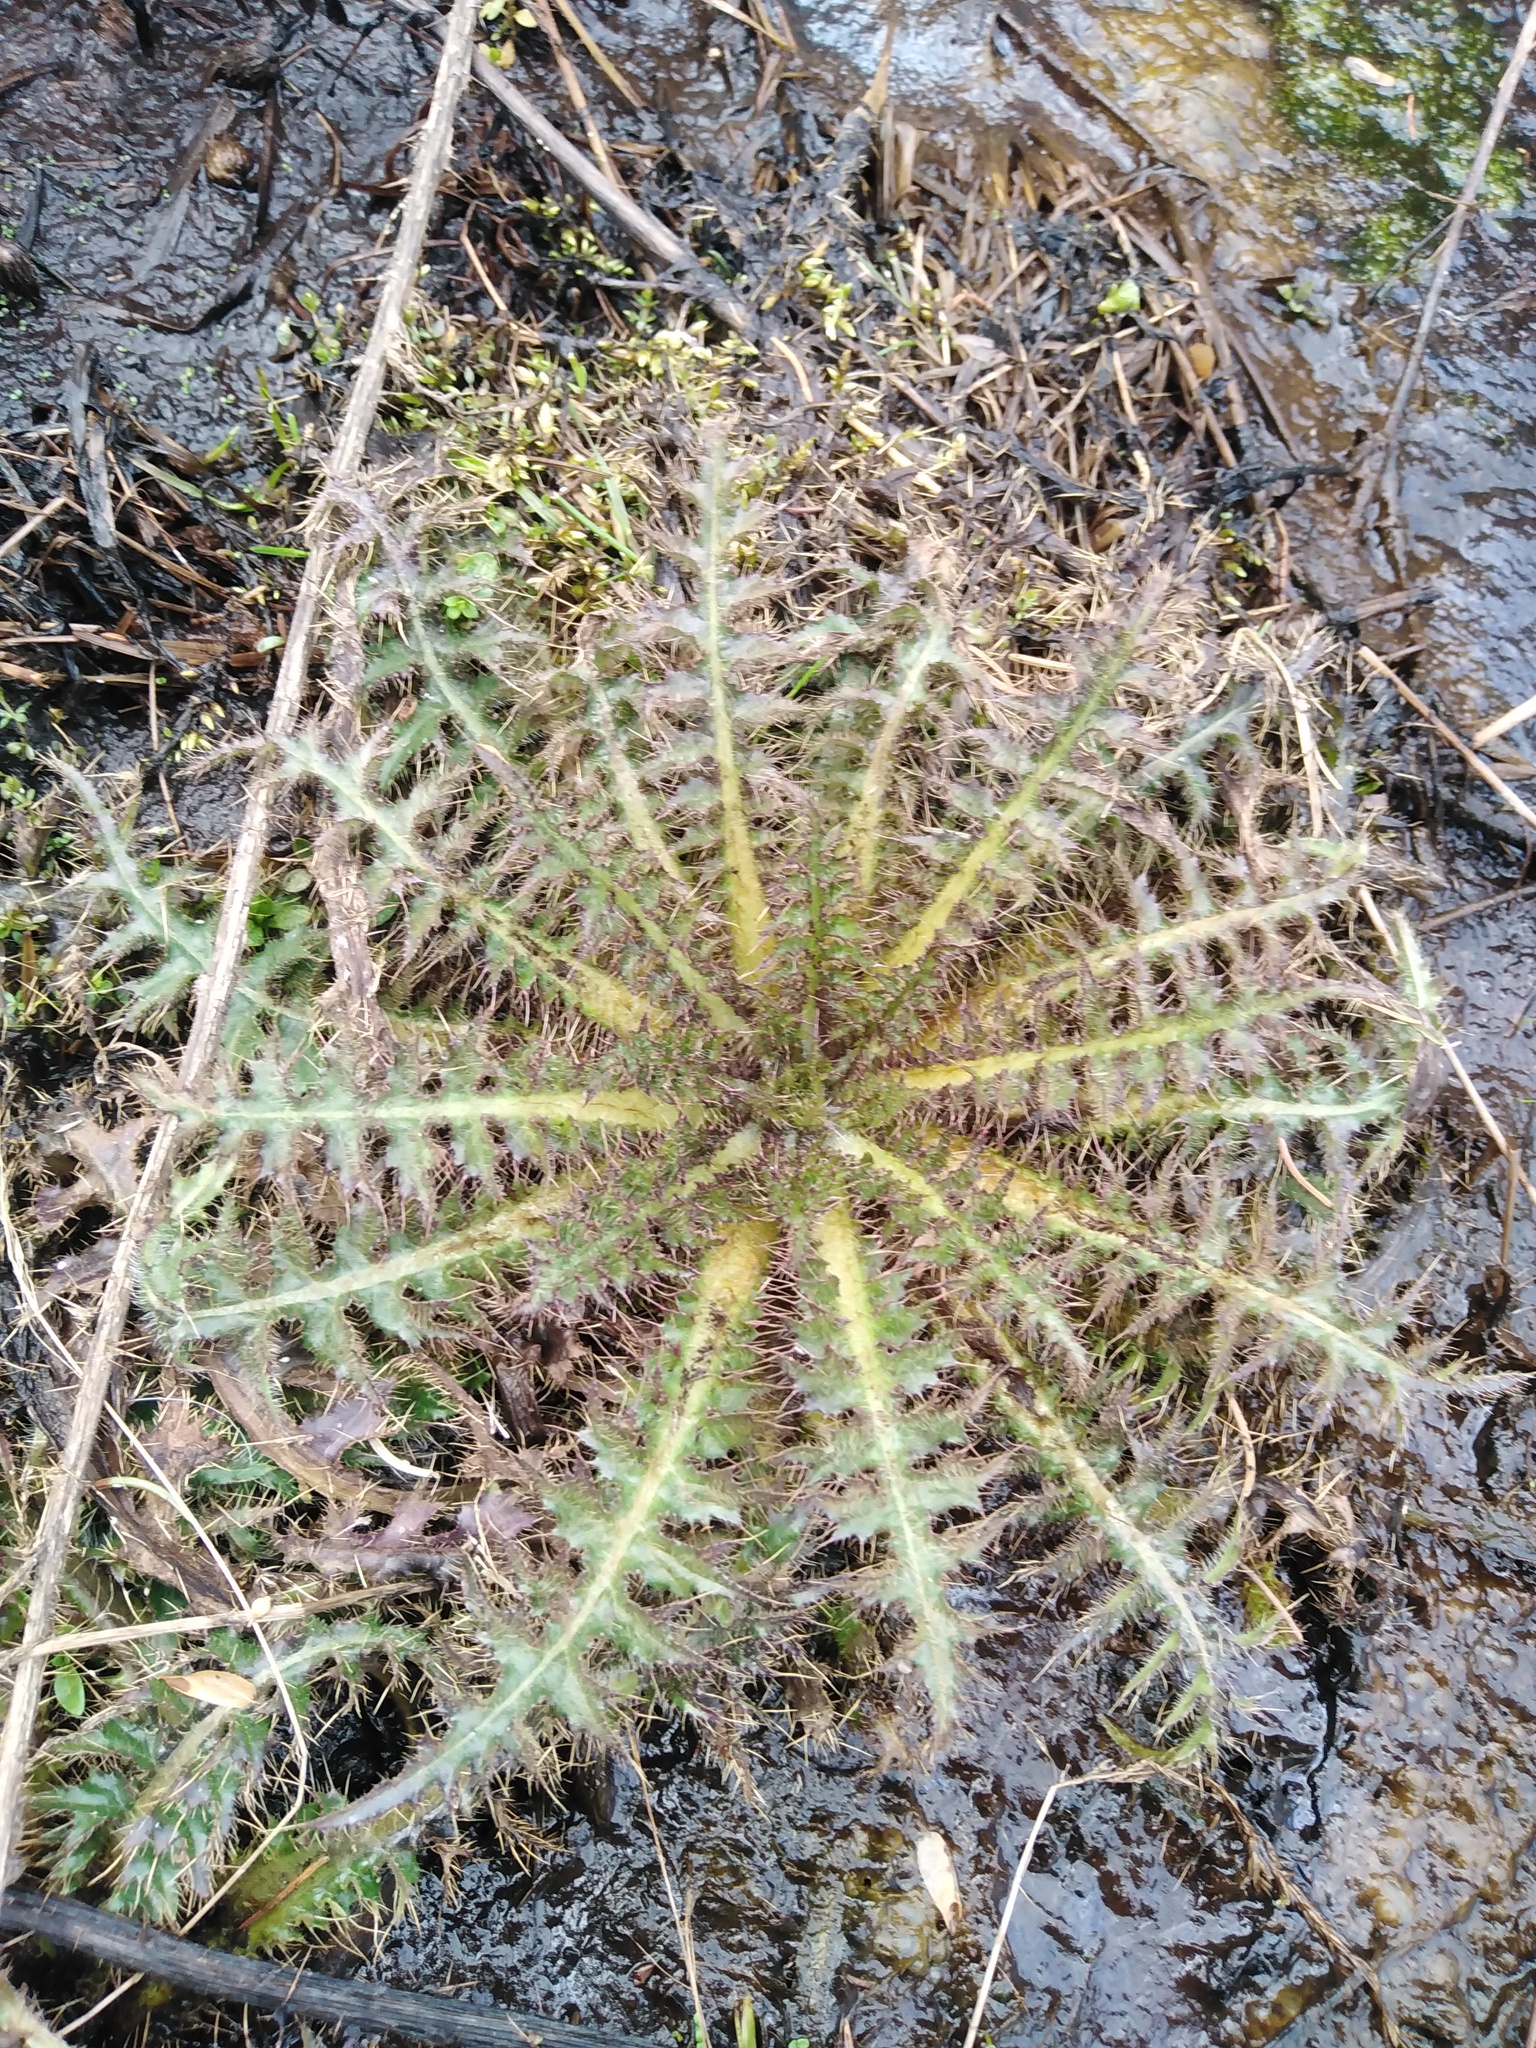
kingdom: Plantae
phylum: Tracheophyta
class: Magnoliopsida
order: Asterales
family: Asteraceae
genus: Cirsium
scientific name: Cirsium palustre
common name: Marsh thistle
